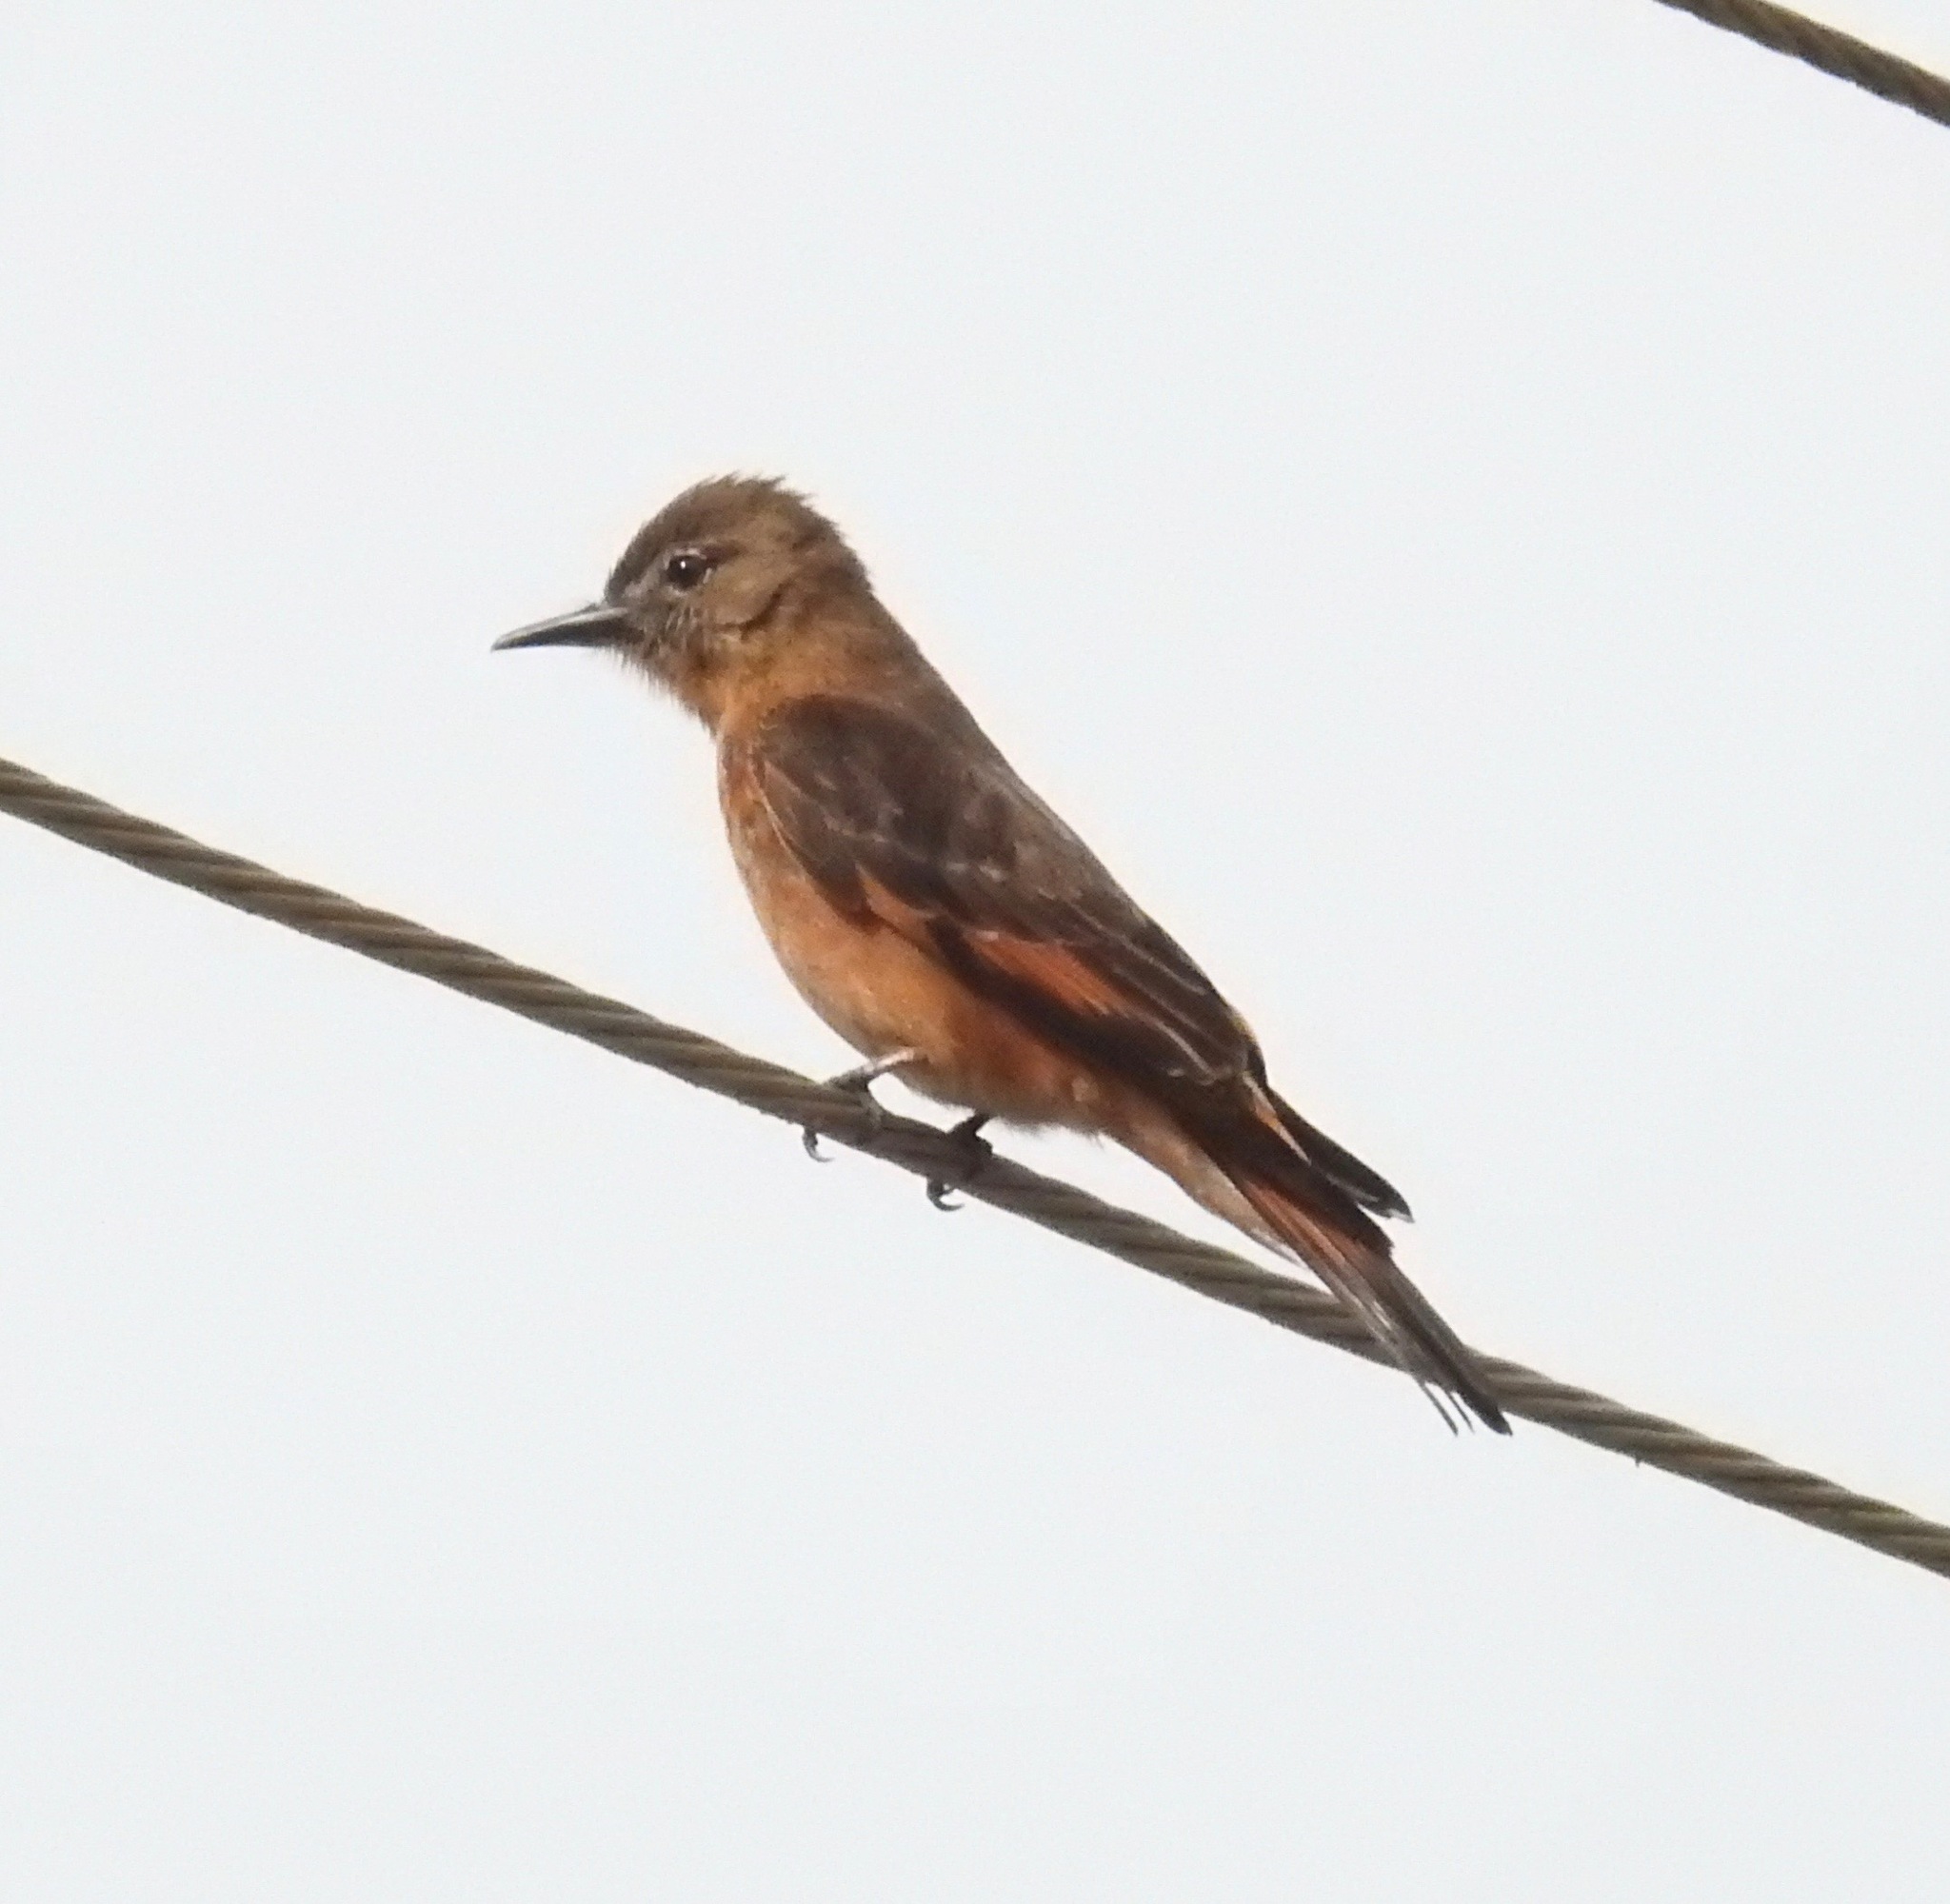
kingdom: Animalia
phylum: Chordata
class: Aves
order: Passeriformes
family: Tyrannidae
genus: Hirundinea
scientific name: Hirundinea ferruginea
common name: Cliff flycatcher
